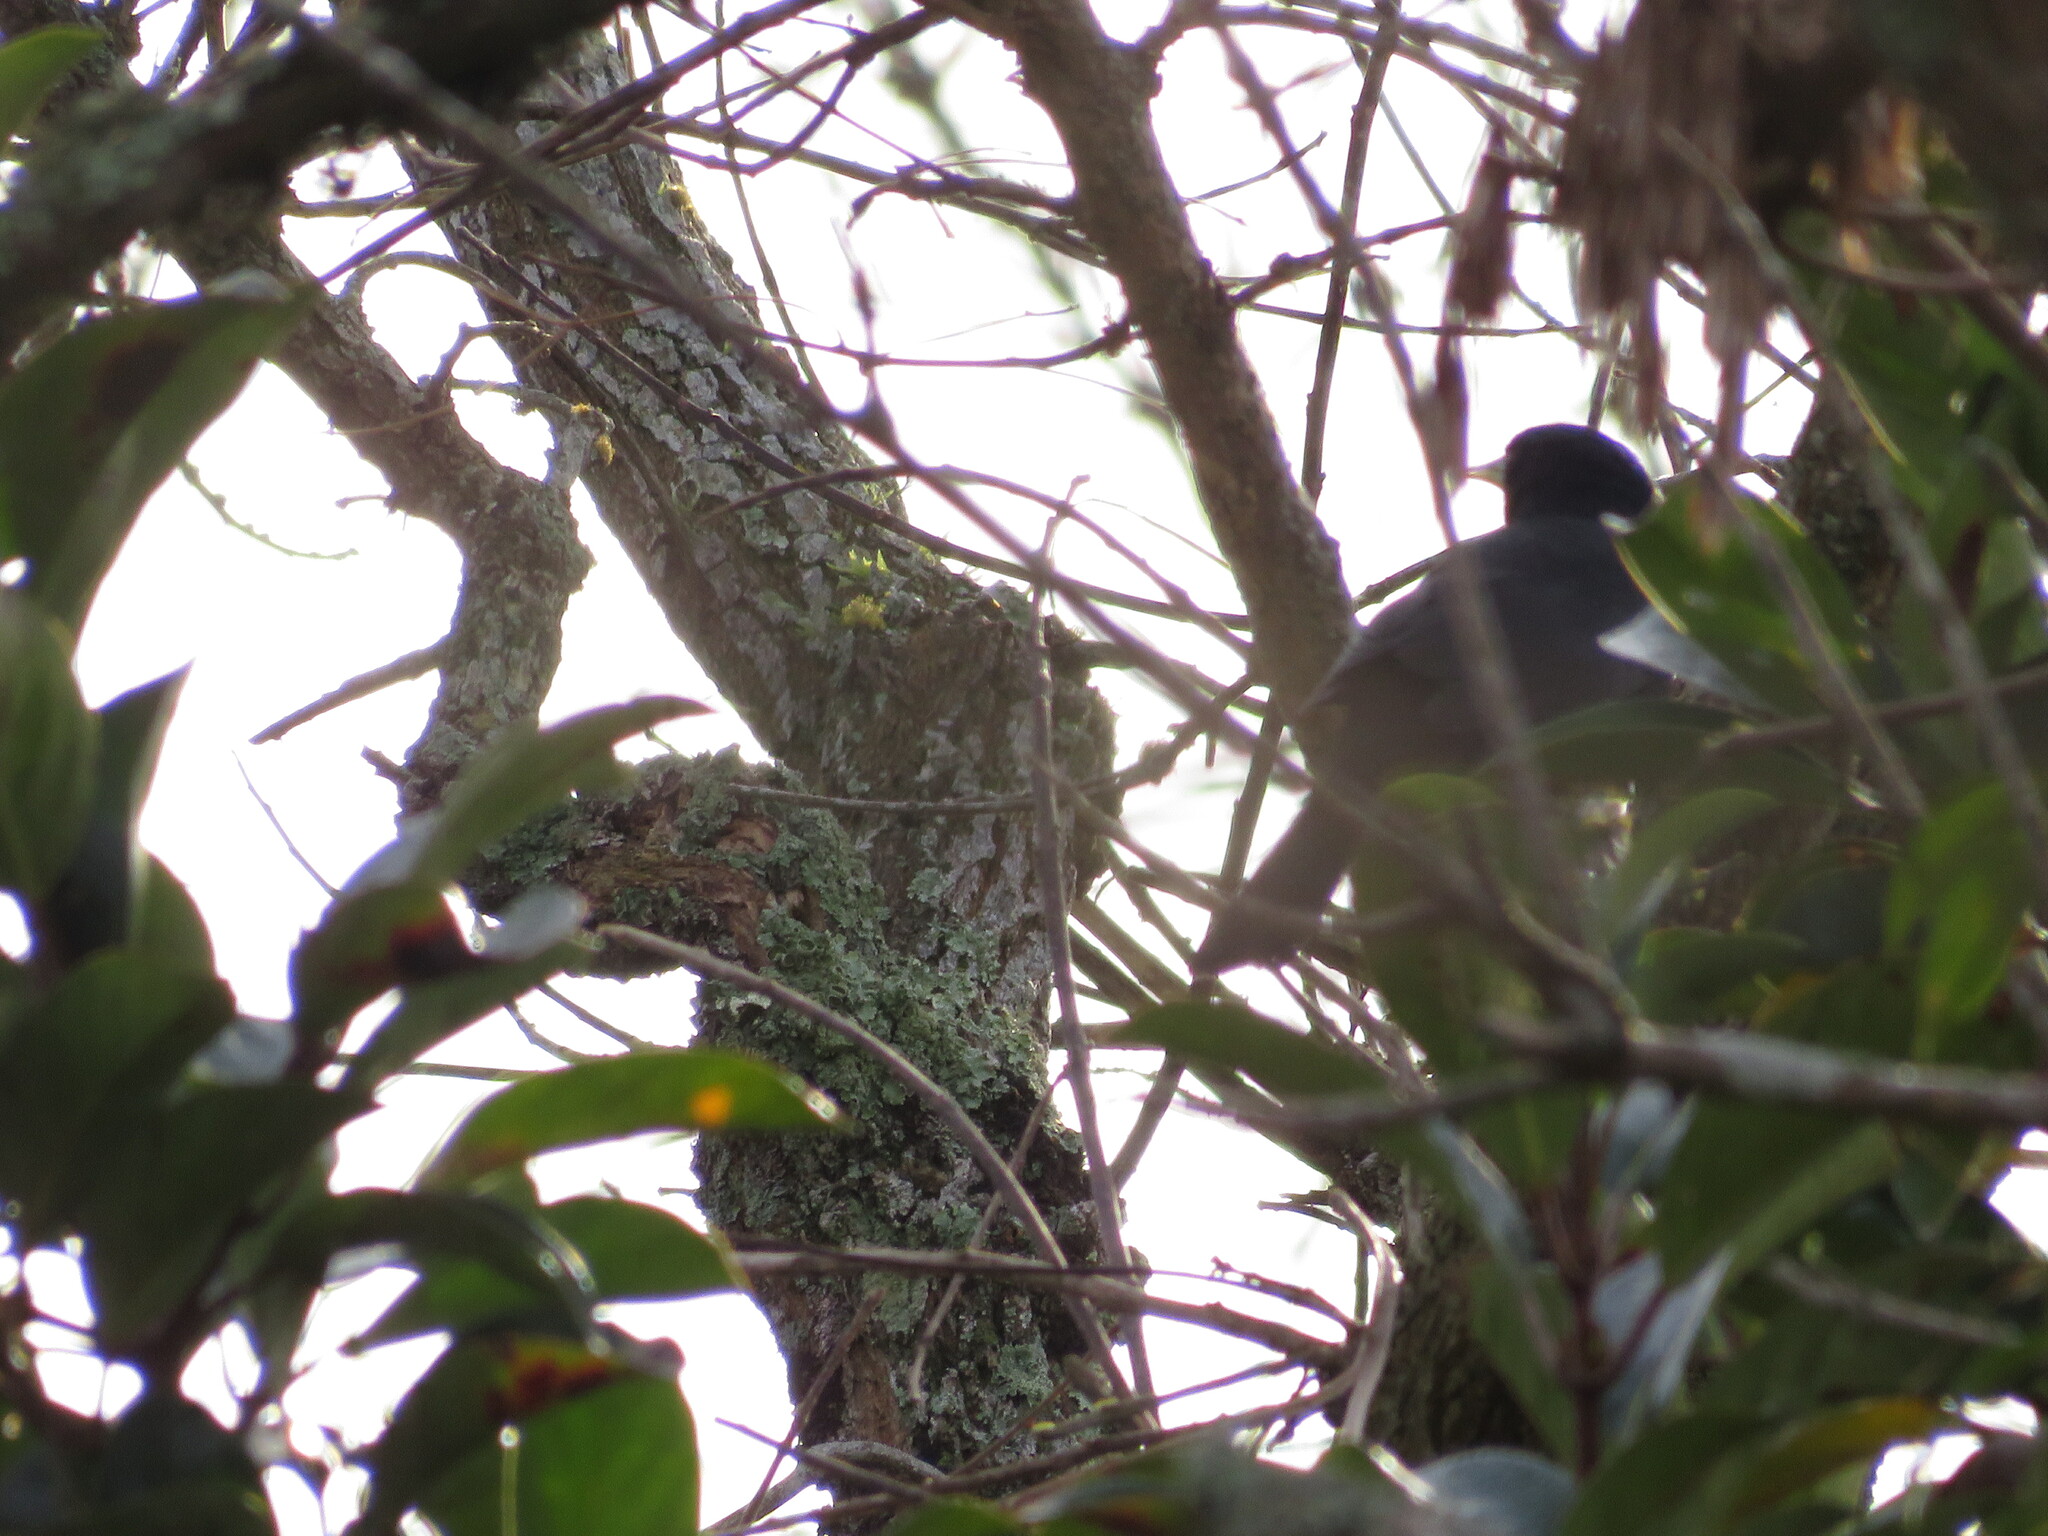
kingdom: Animalia
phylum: Chordata
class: Aves
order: Passeriformes
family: Icteridae
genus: Cacicus
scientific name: Cacicus solitarius
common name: Solitary cacique
